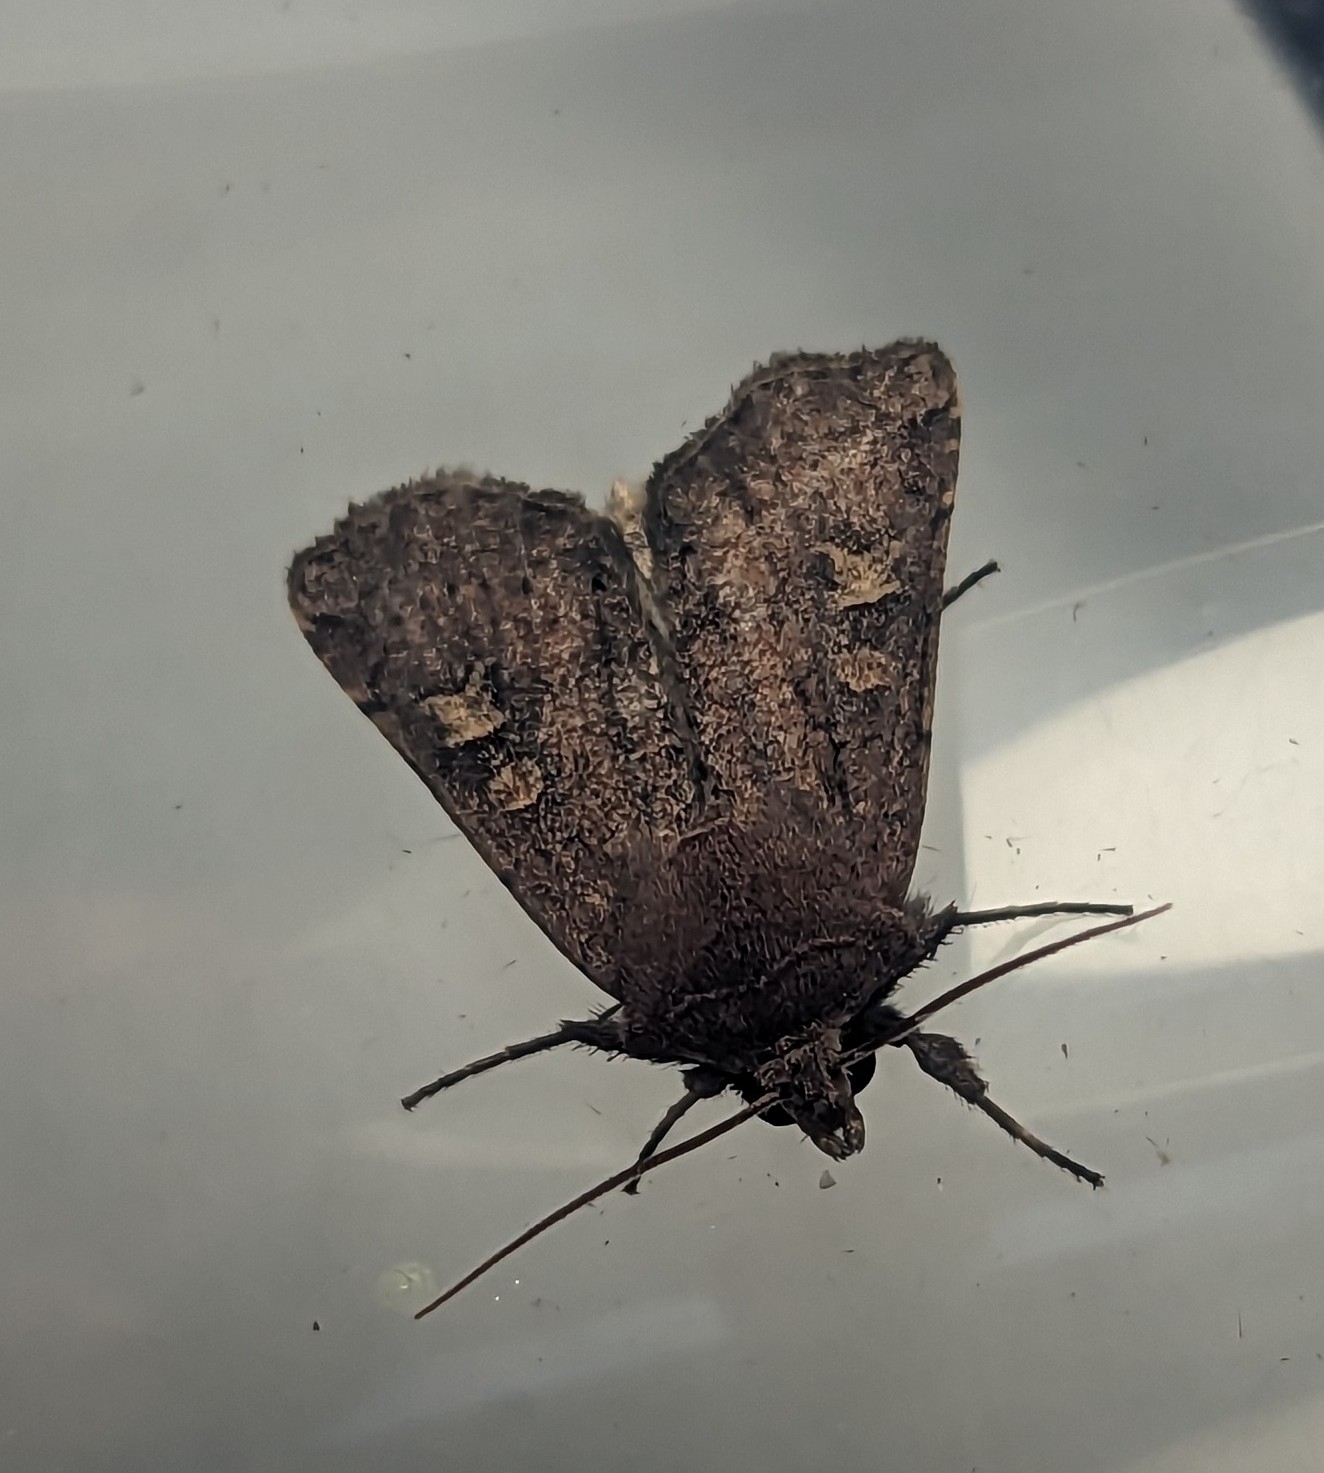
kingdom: Animalia
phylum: Arthropoda
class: Insecta
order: Lepidoptera
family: Noctuidae
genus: Xestia
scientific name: Xestia xanthographa
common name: Square-spot rustic
